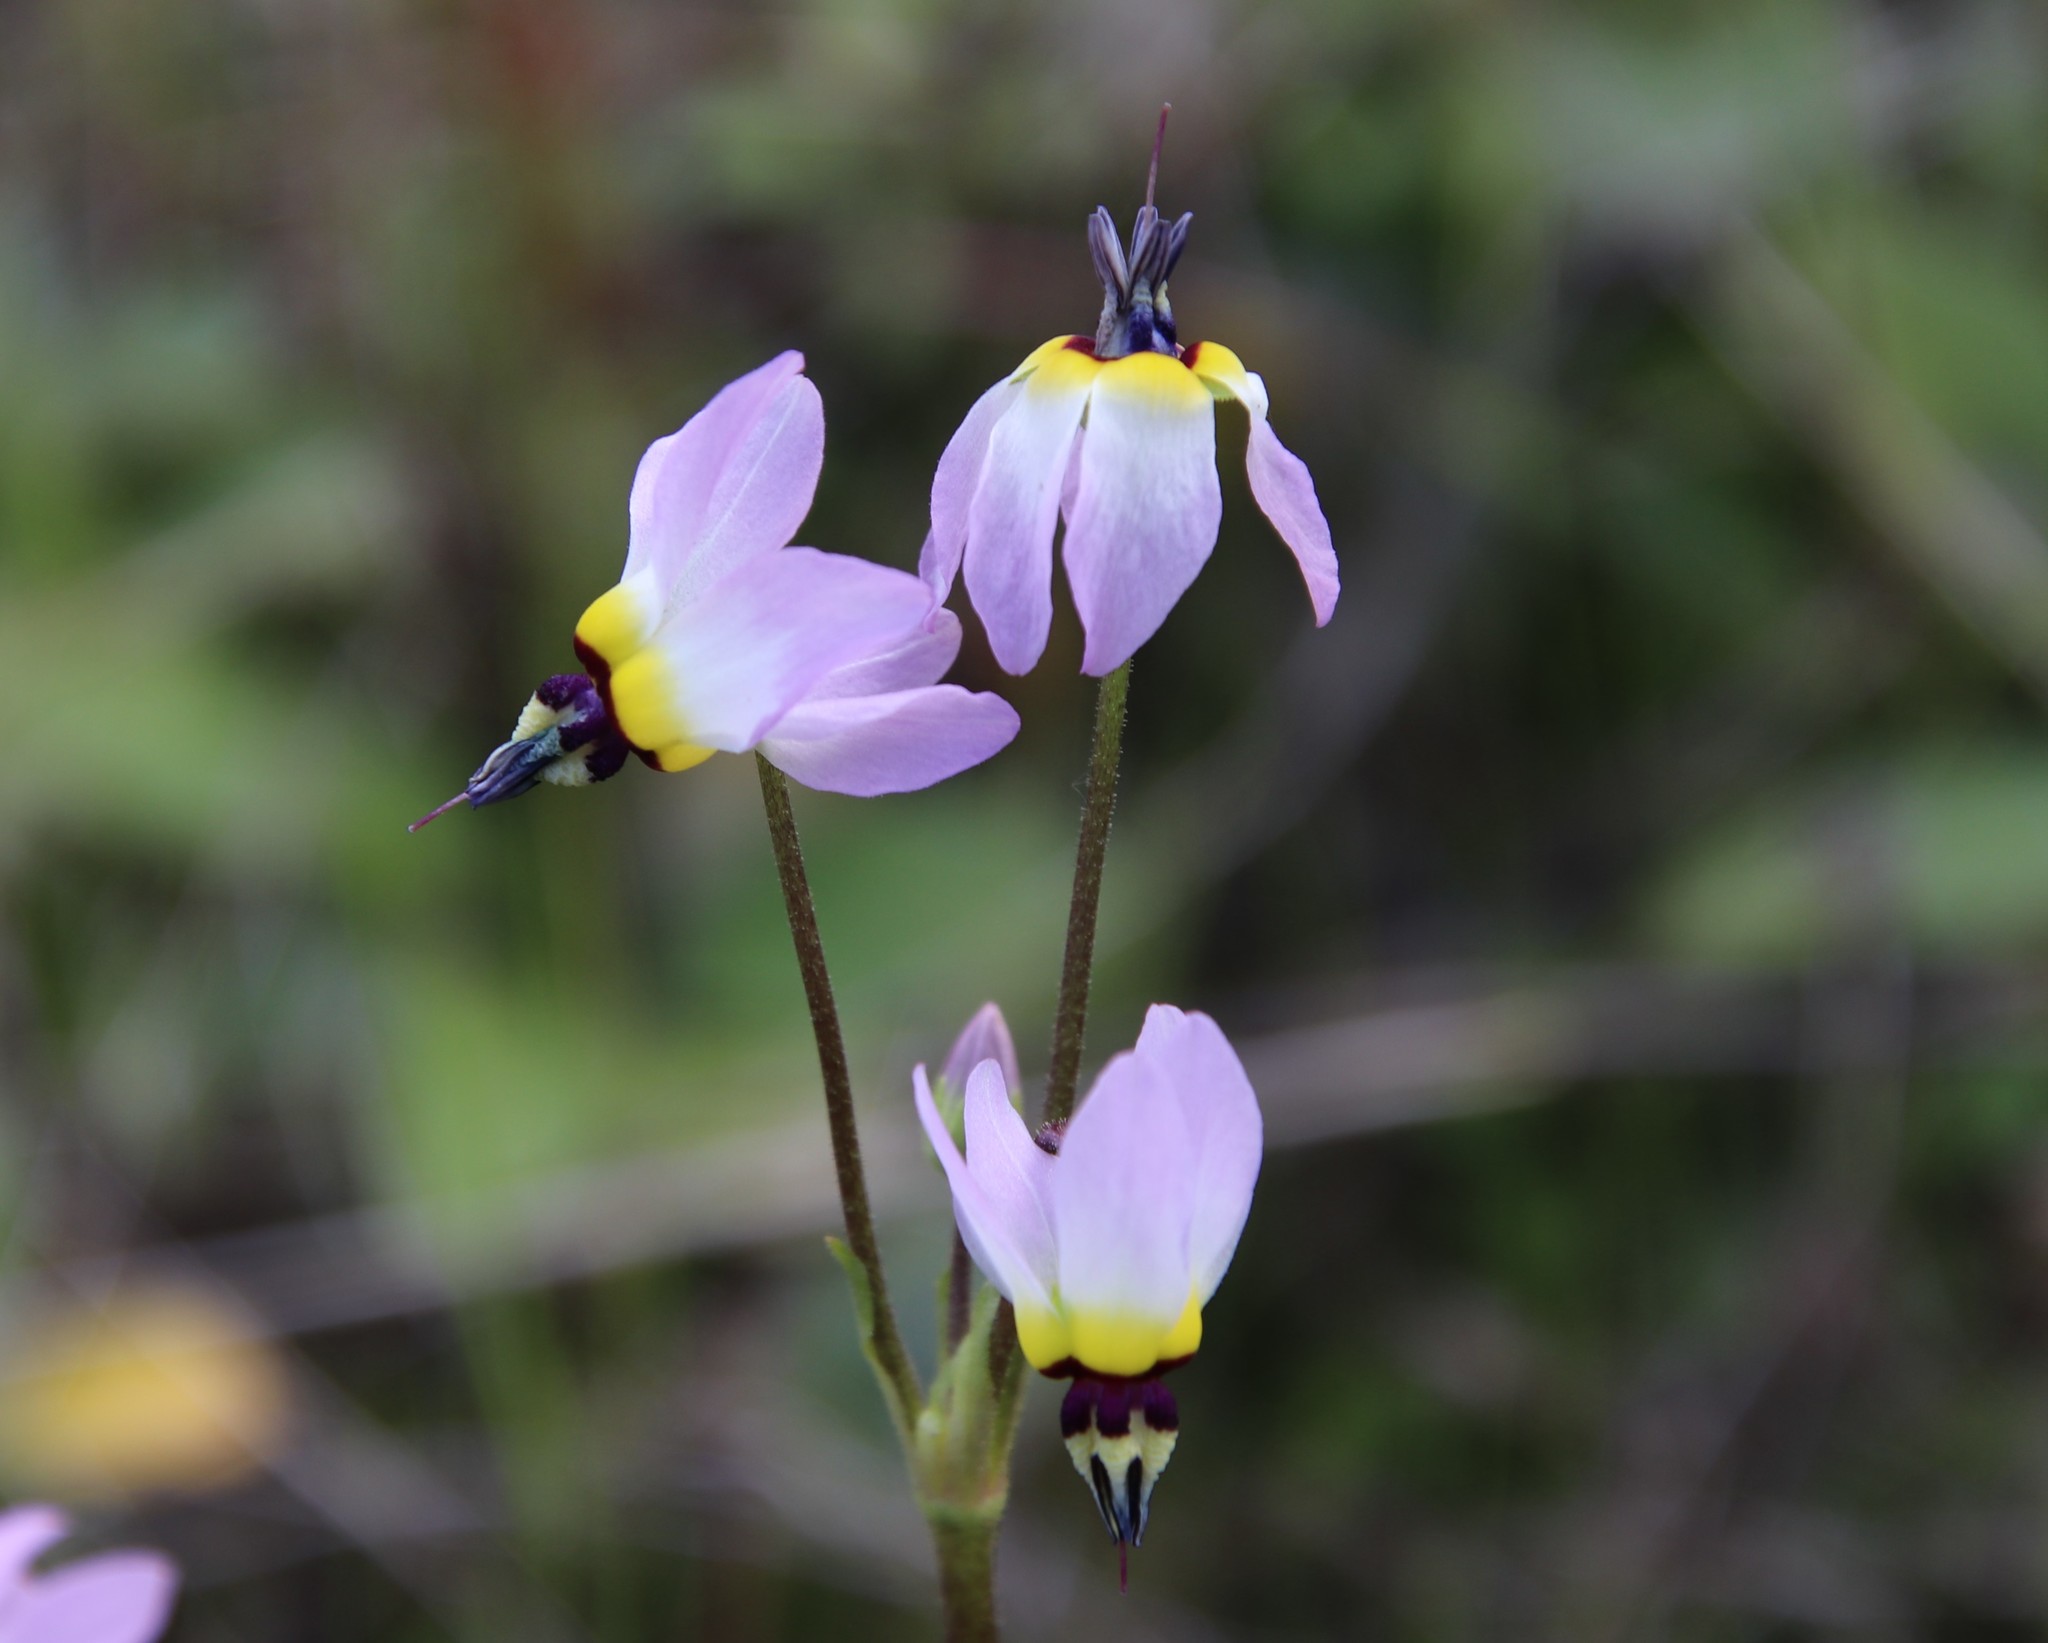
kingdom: Plantae
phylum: Tracheophyta
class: Magnoliopsida
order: Ericales
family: Primulaceae
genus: Dodecatheon
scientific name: Dodecatheon clevelandii
